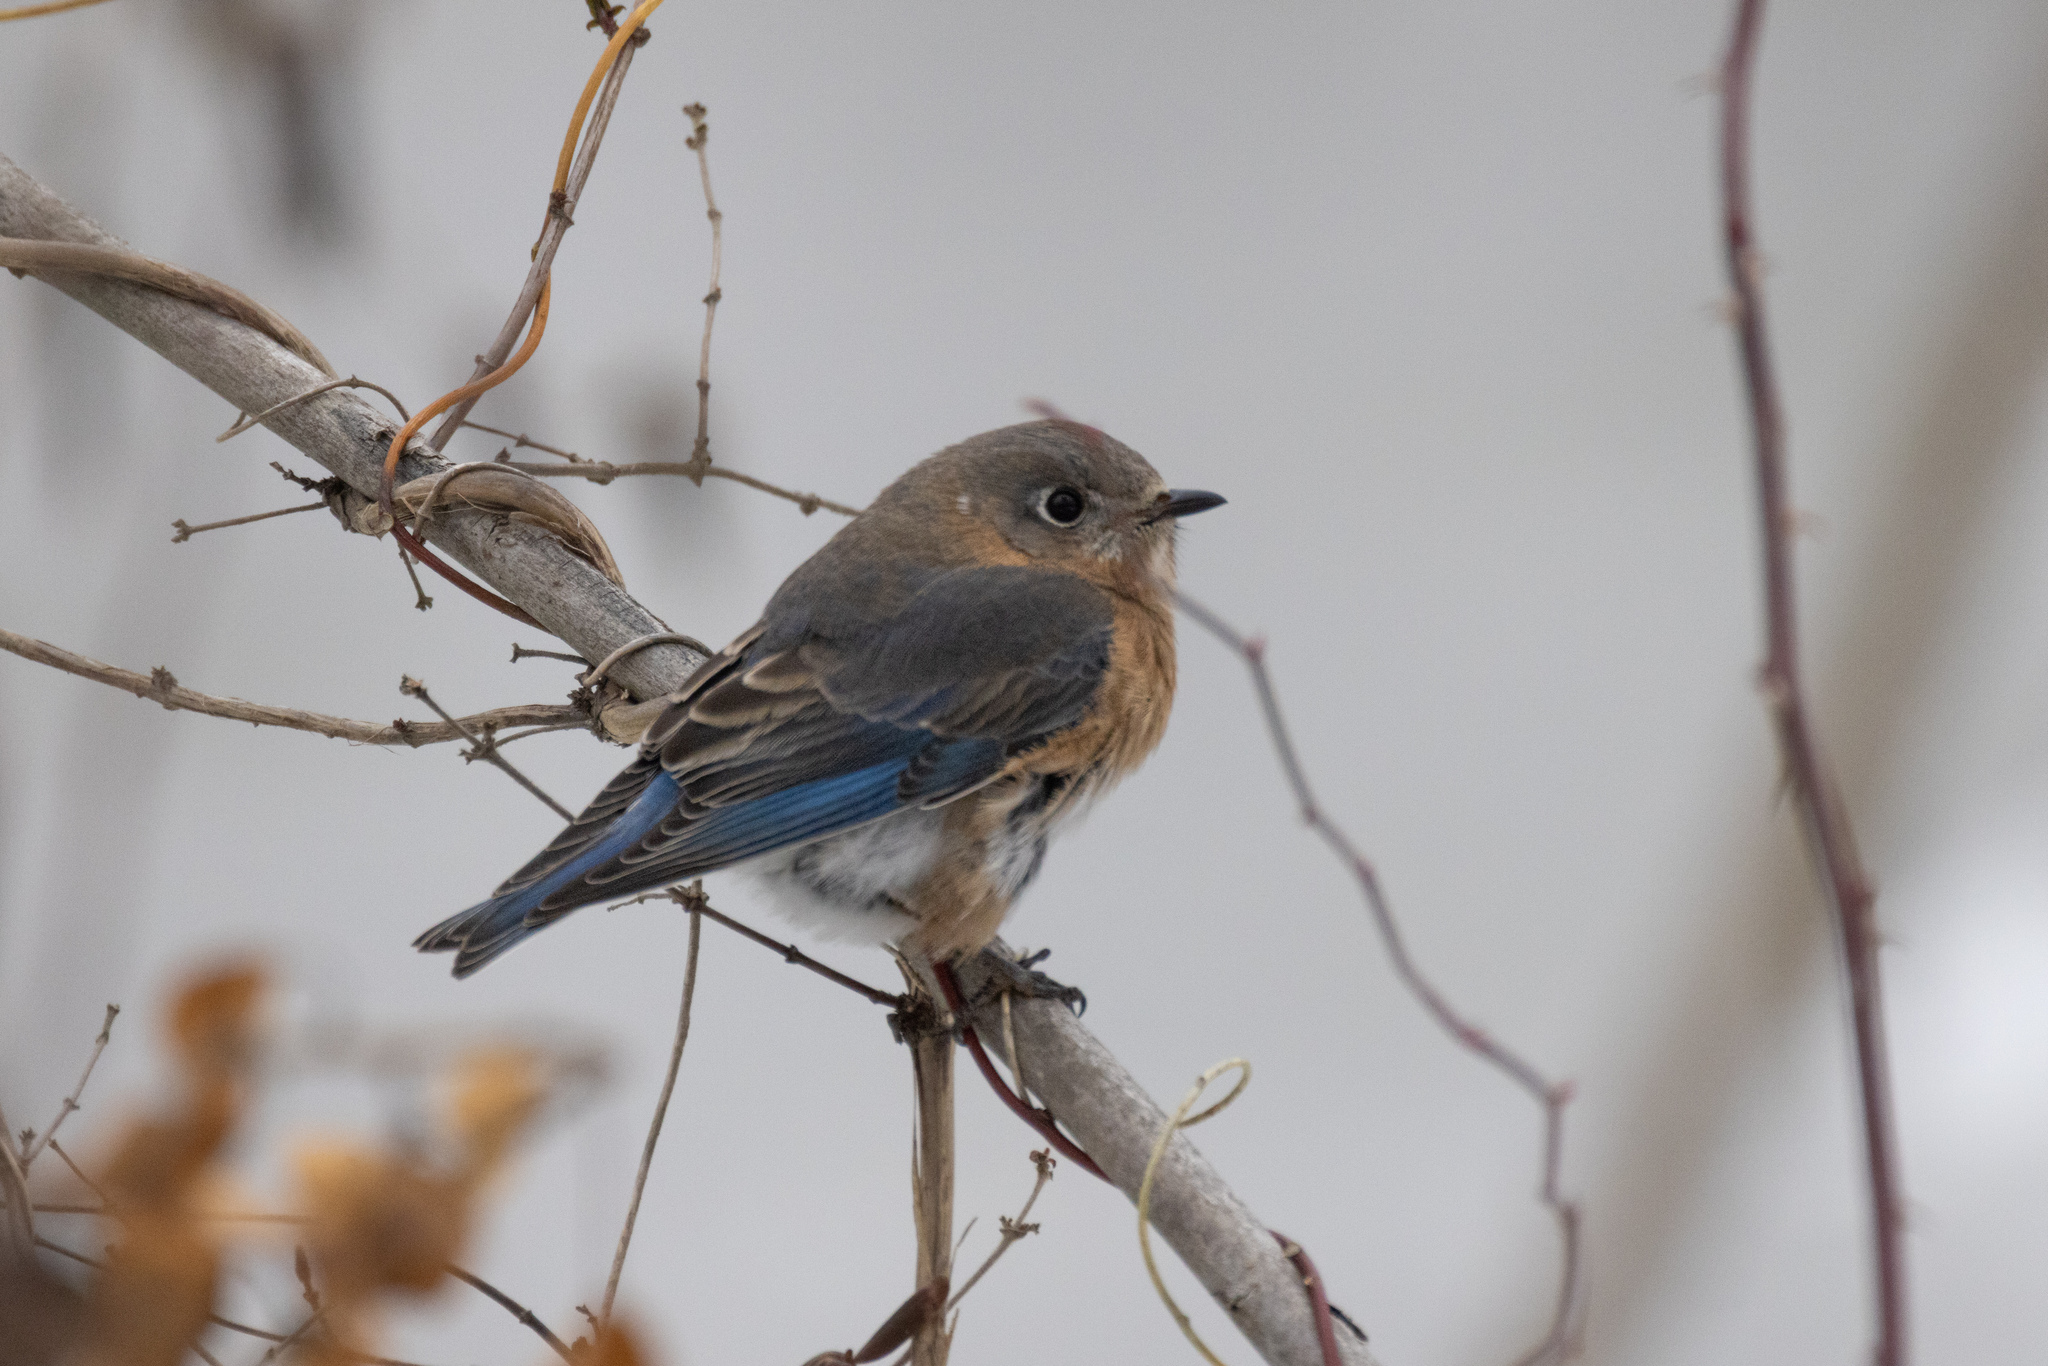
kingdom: Animalia
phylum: Chordata
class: Aves
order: Passeriformes
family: Turdidae
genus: Sialia
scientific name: Sialia sialis
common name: Eastern bluebird
